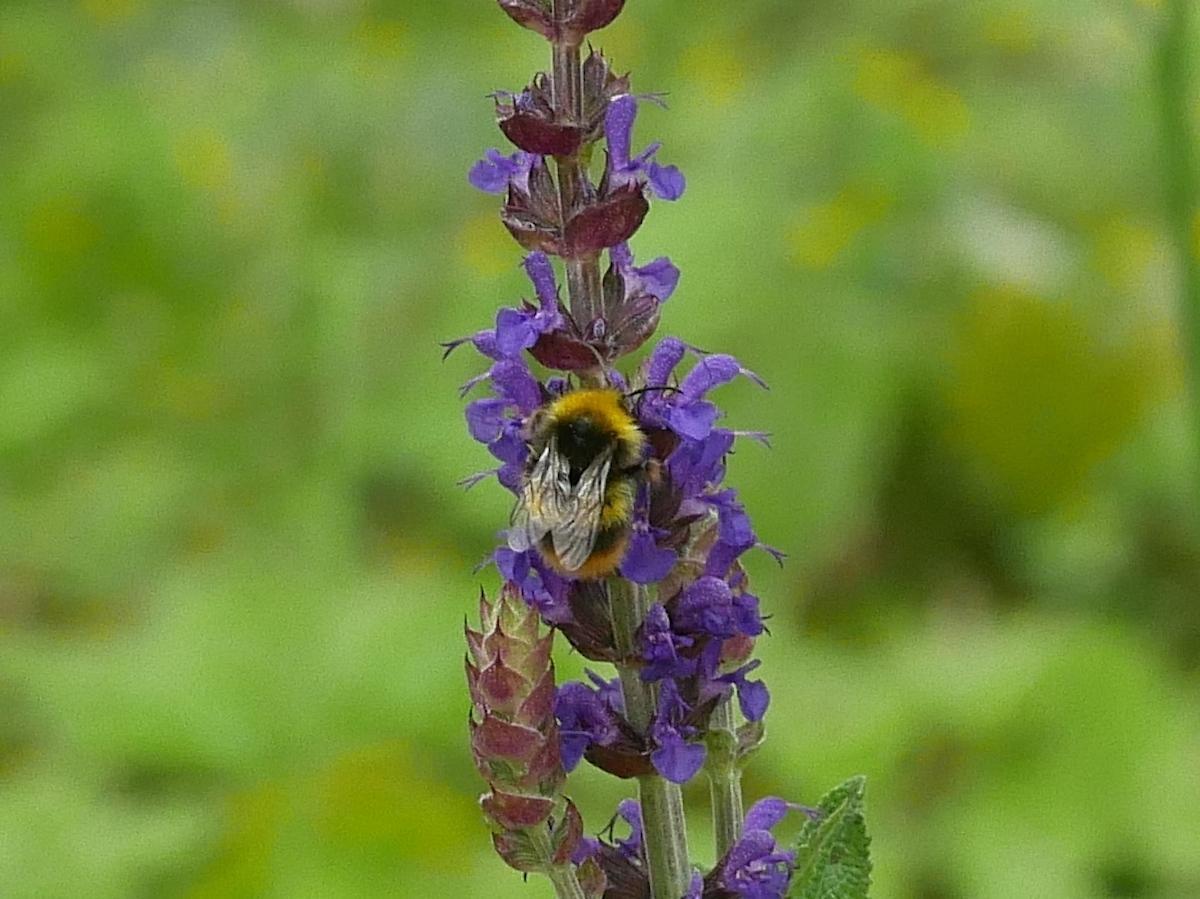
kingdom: Animalia
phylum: Arthropoda
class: Insecta
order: Hymenoptera
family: Apidae
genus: Bombus
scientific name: Bombus pratorum
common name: Early humble-bee
